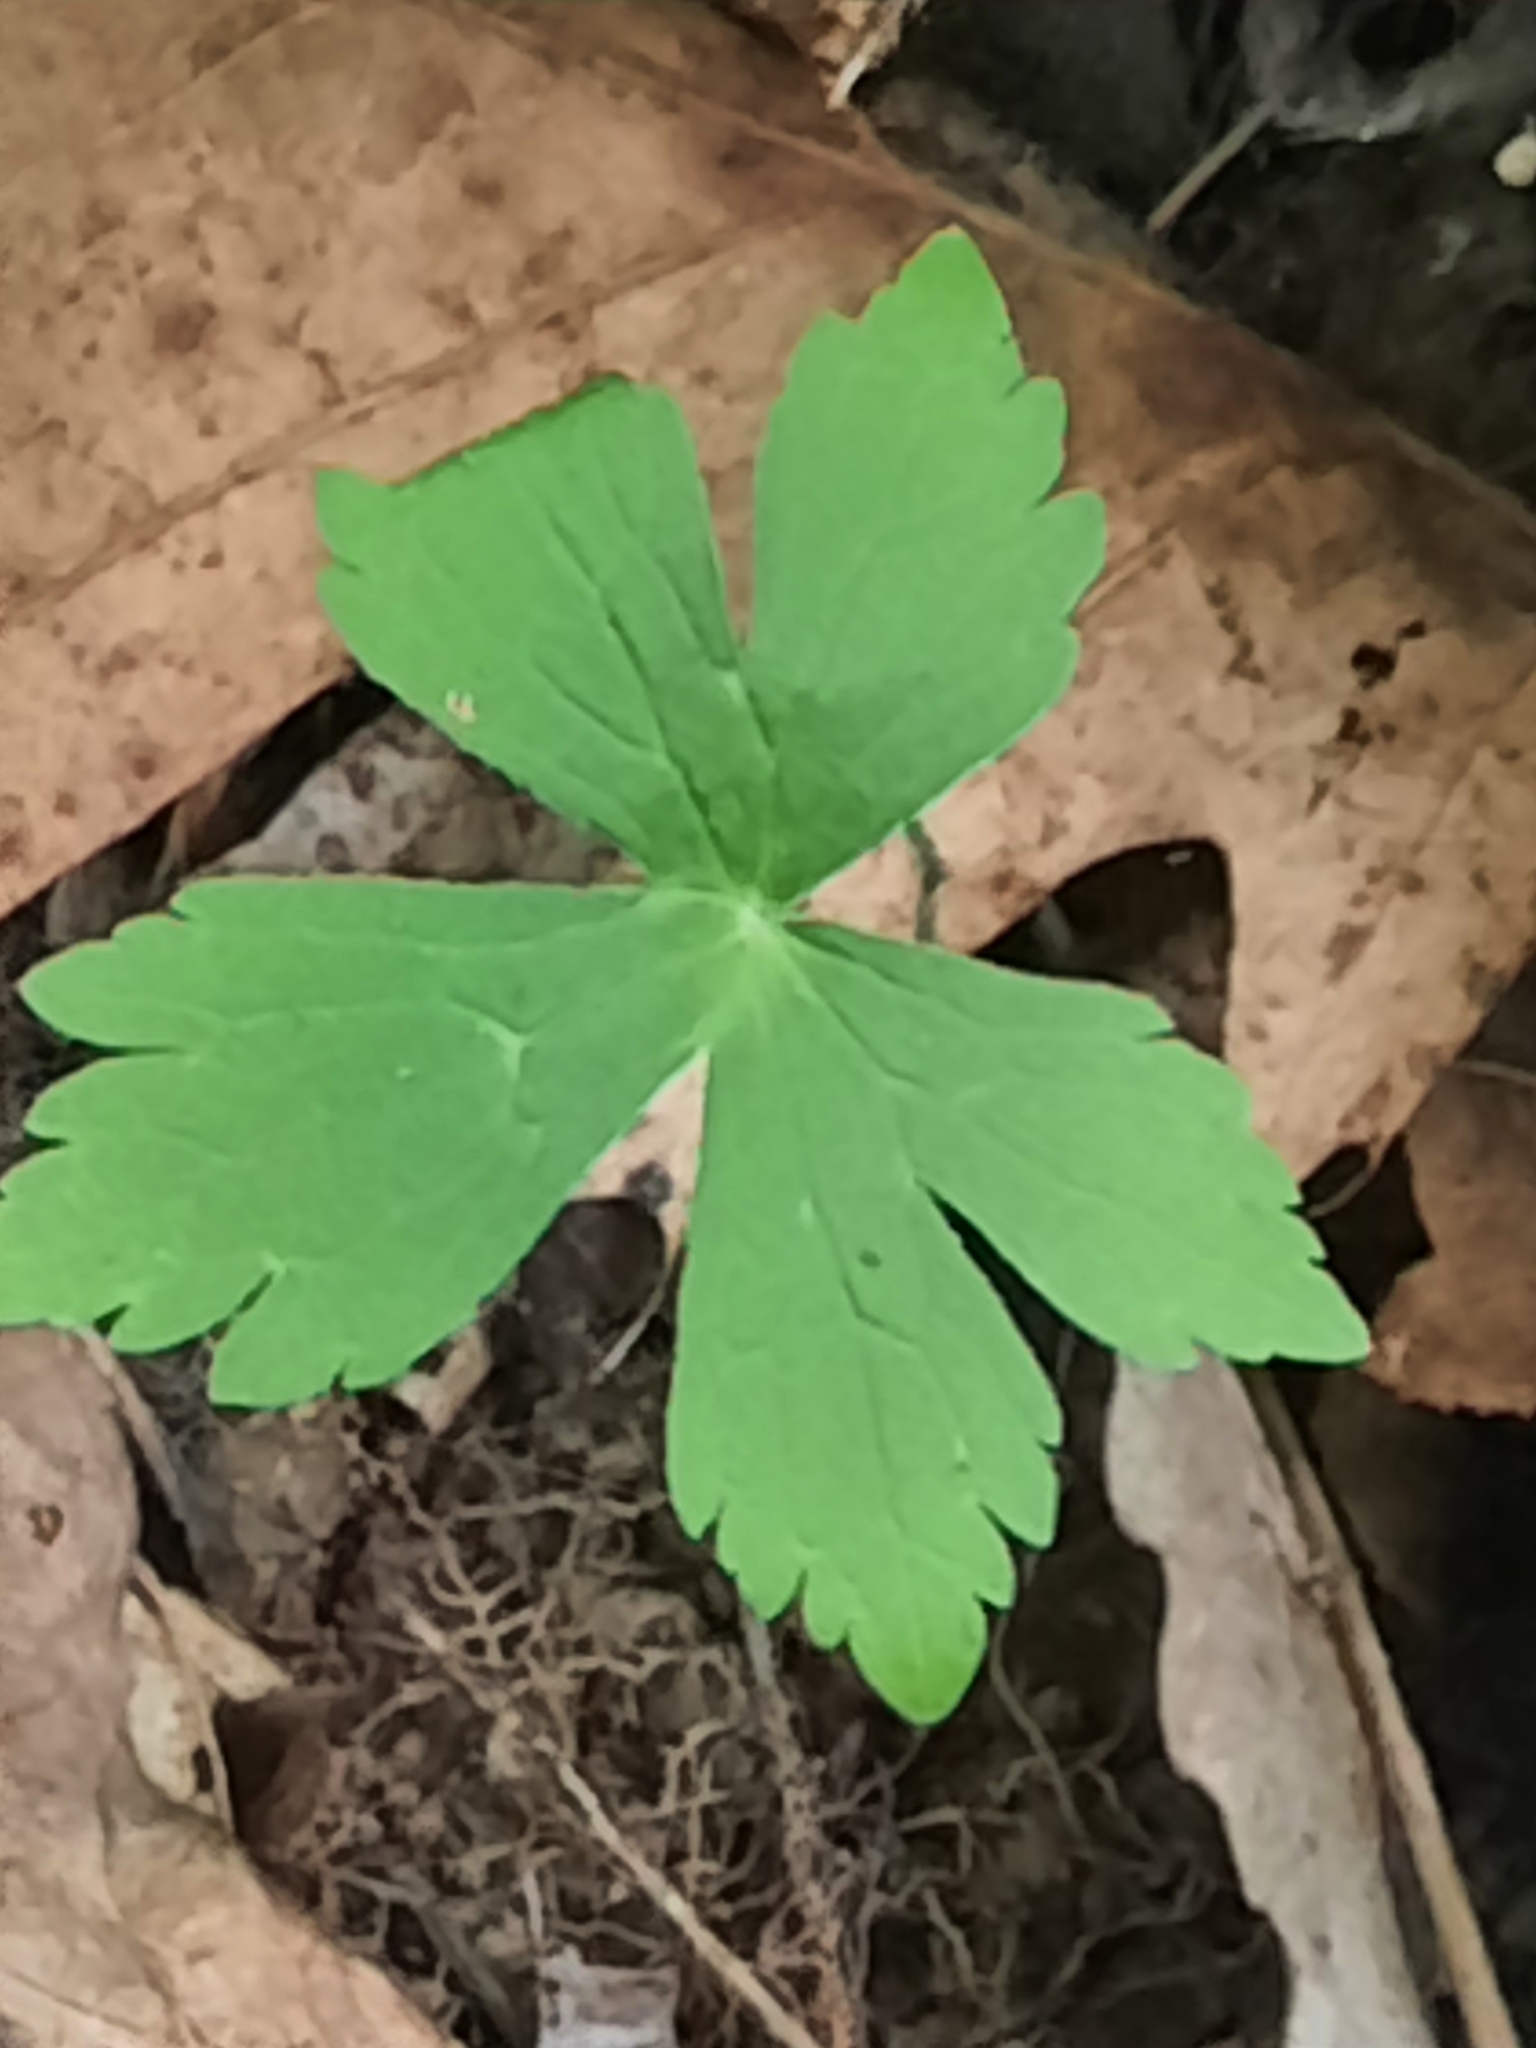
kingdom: Plantae
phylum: Tracheophyta
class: Magnoliopsida
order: Geraniales
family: Geraniaceae
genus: Geranium
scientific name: Geranium maculatum
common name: Spotted geranium
